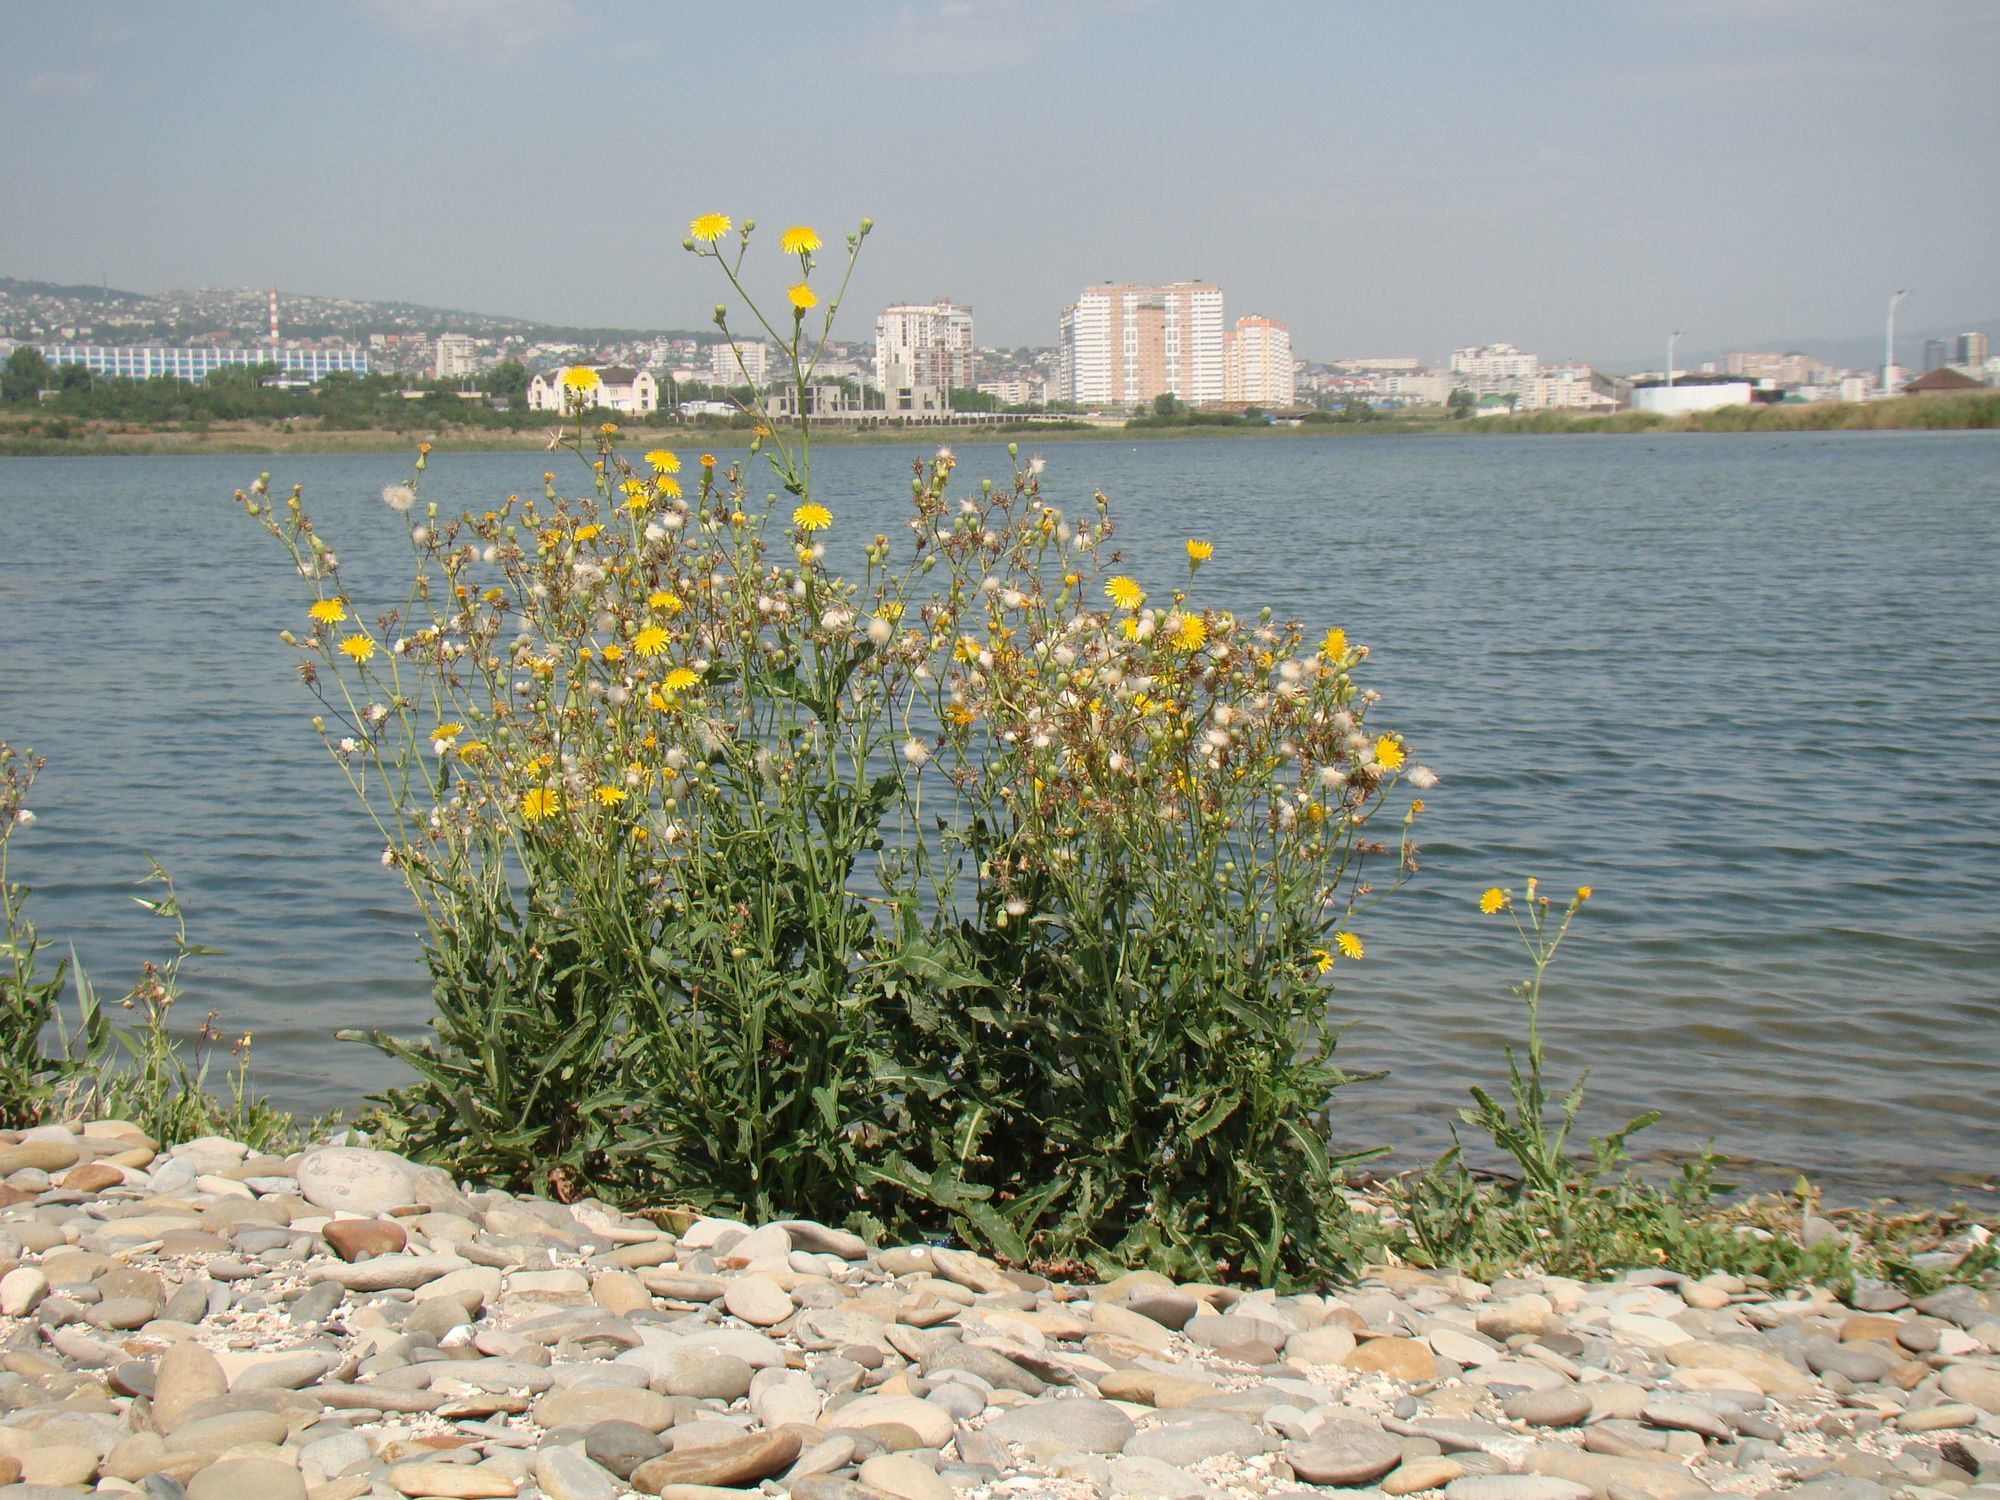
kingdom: Plantae
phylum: Tracheophyta
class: Magnoliopsida
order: Asterales
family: Asteraceae
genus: Sonchus
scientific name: Sonchus arvensis
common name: Perennial sow-thistle
